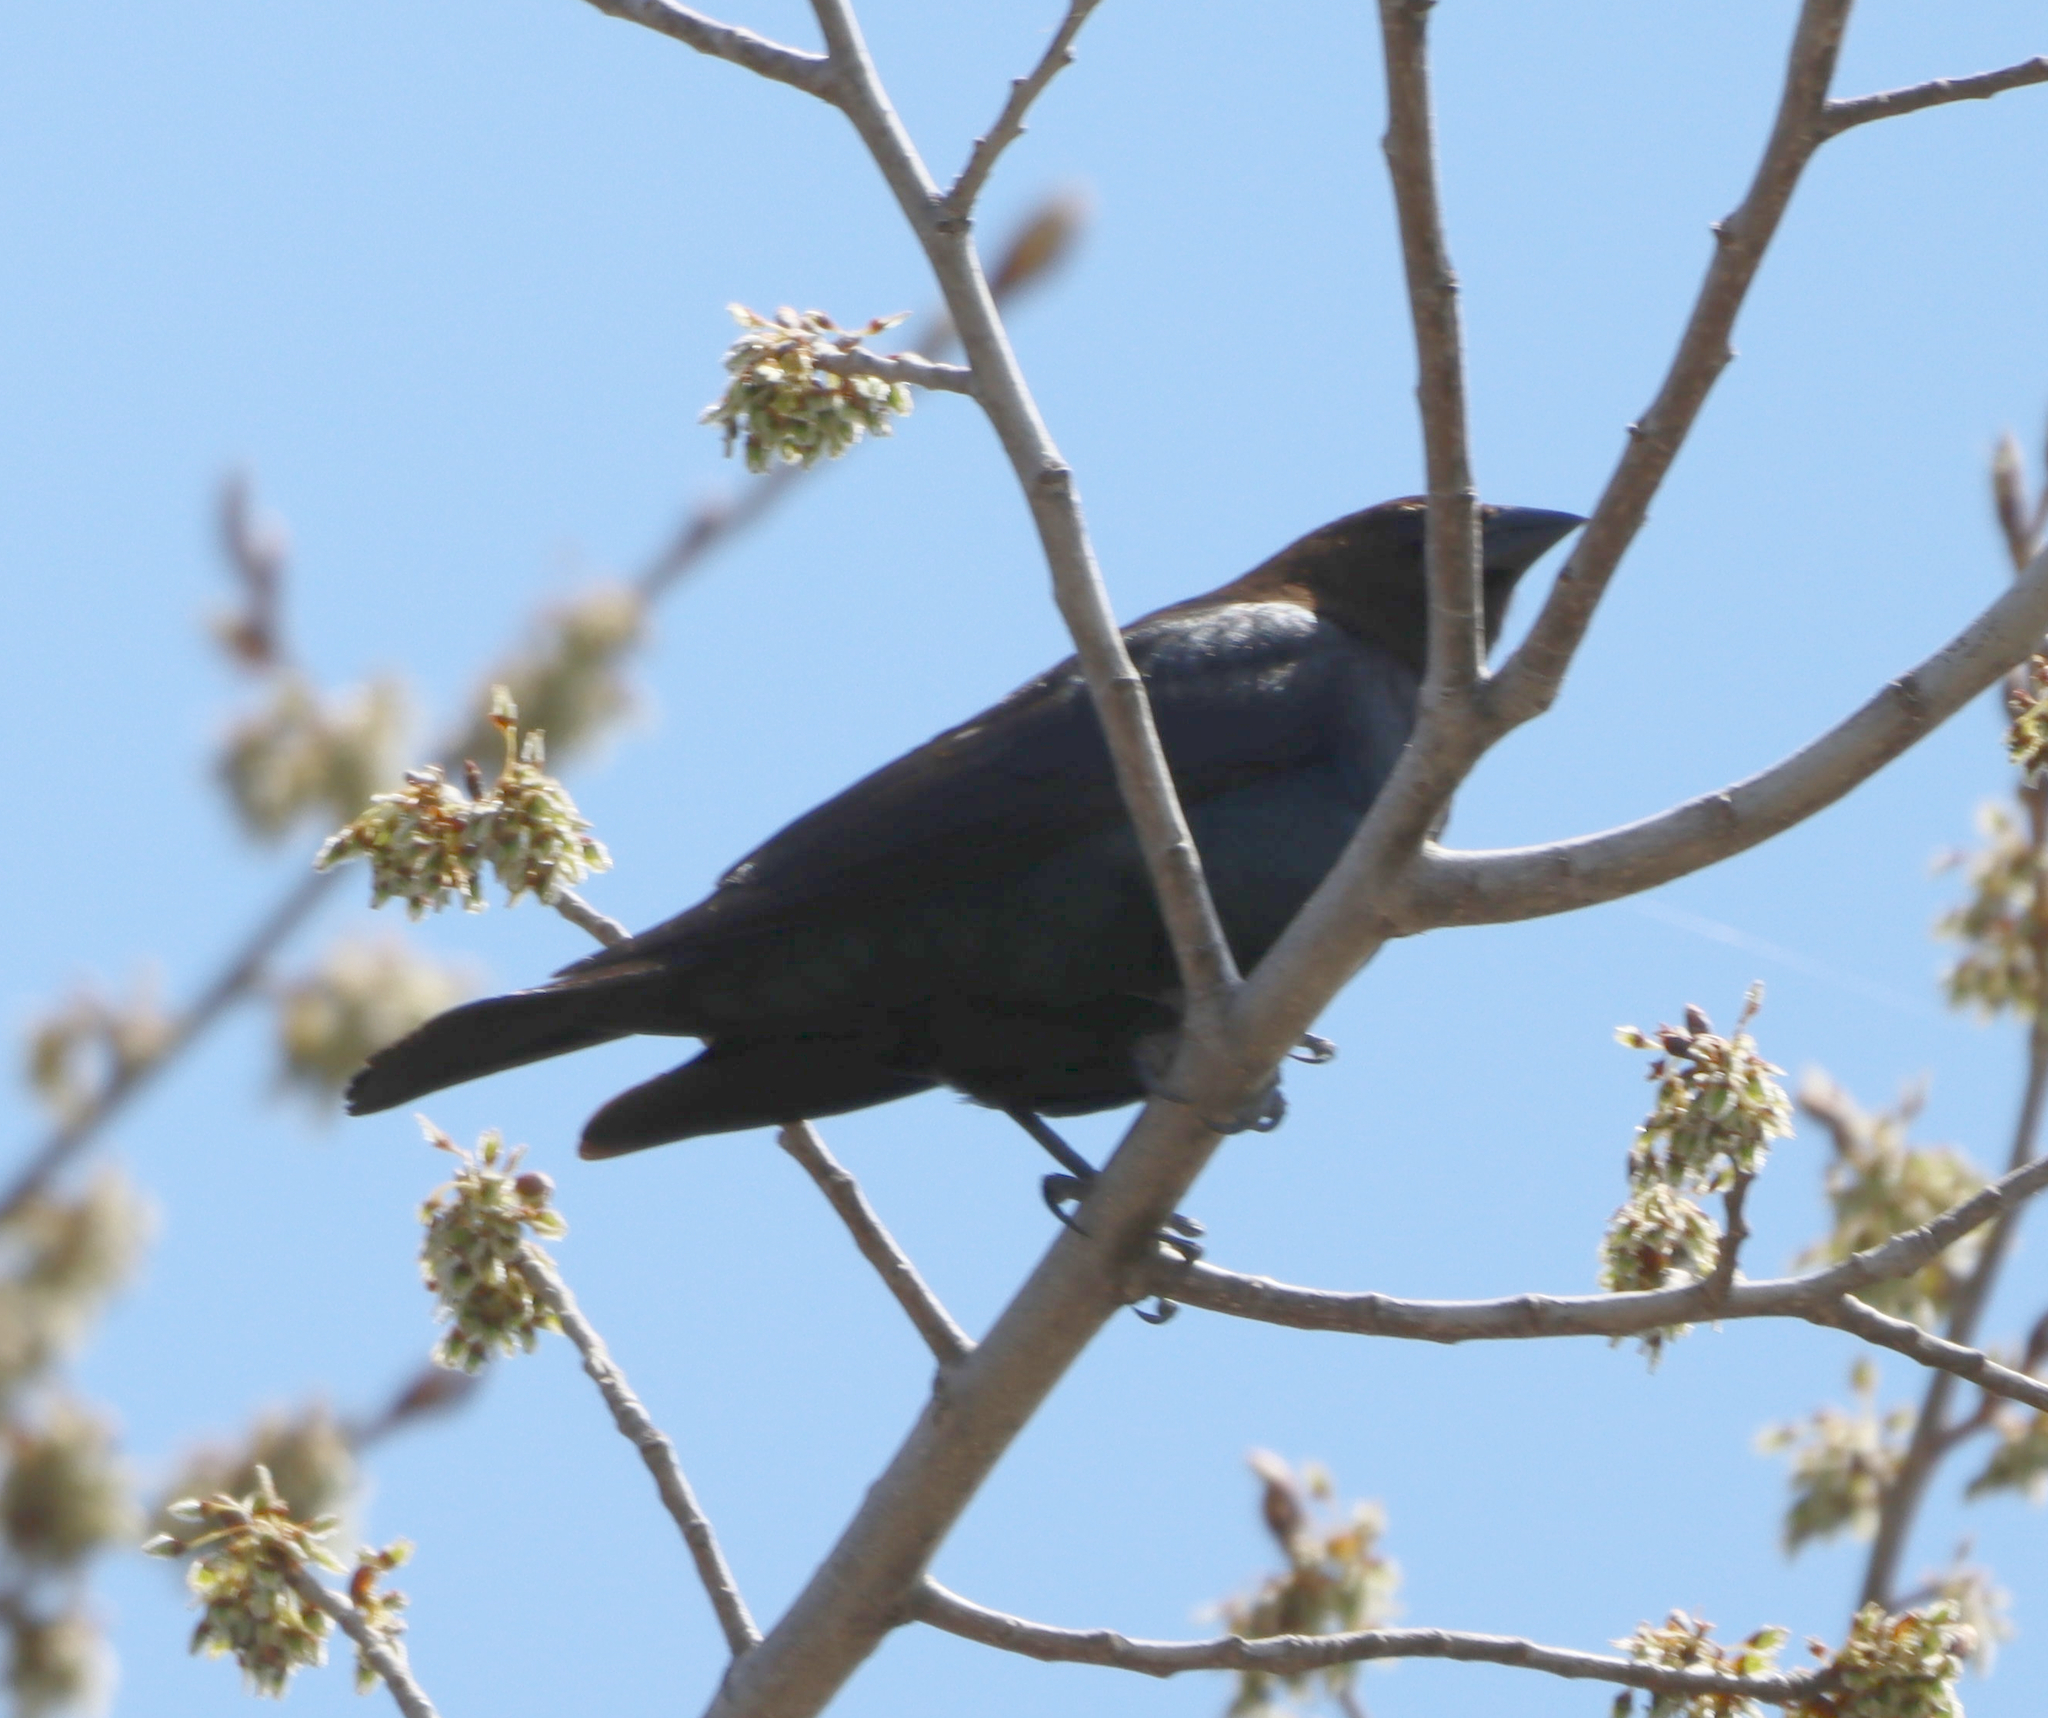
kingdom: Animalia
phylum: Chordata
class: Aves
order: Passeriformes
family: Icteridae
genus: Molothrus
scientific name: Molothrus ater
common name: Brown-headed cowbird
